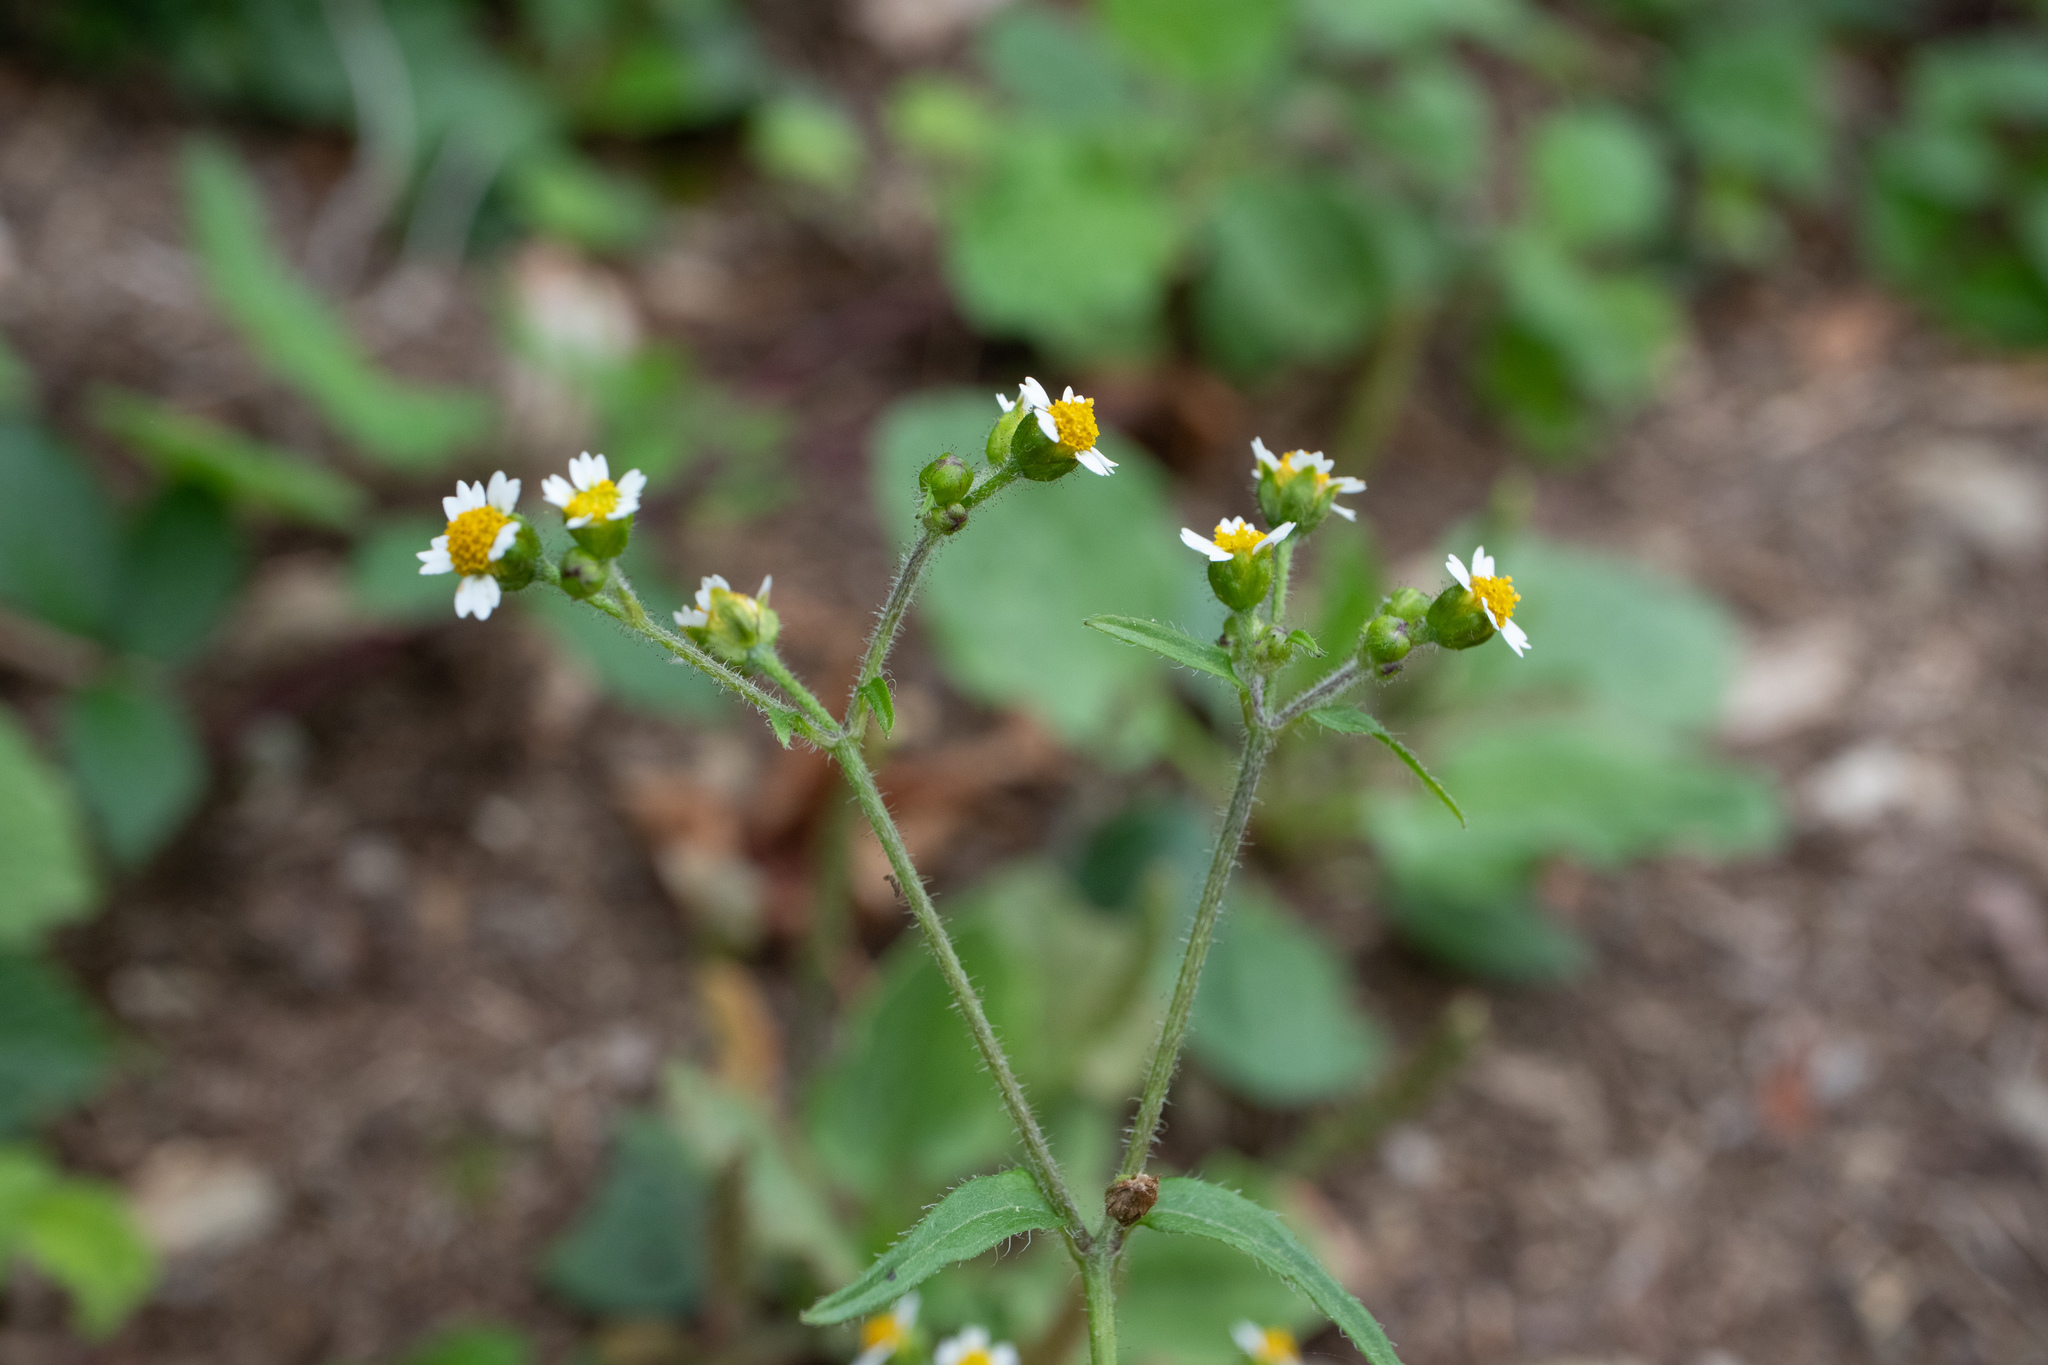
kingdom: Plantae
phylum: Tracheophyta
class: Magnoliopsida
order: Asterales
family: Asteraceae
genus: Galinsoga
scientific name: Galinsoga quadriradiata
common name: Shaggy soldier
